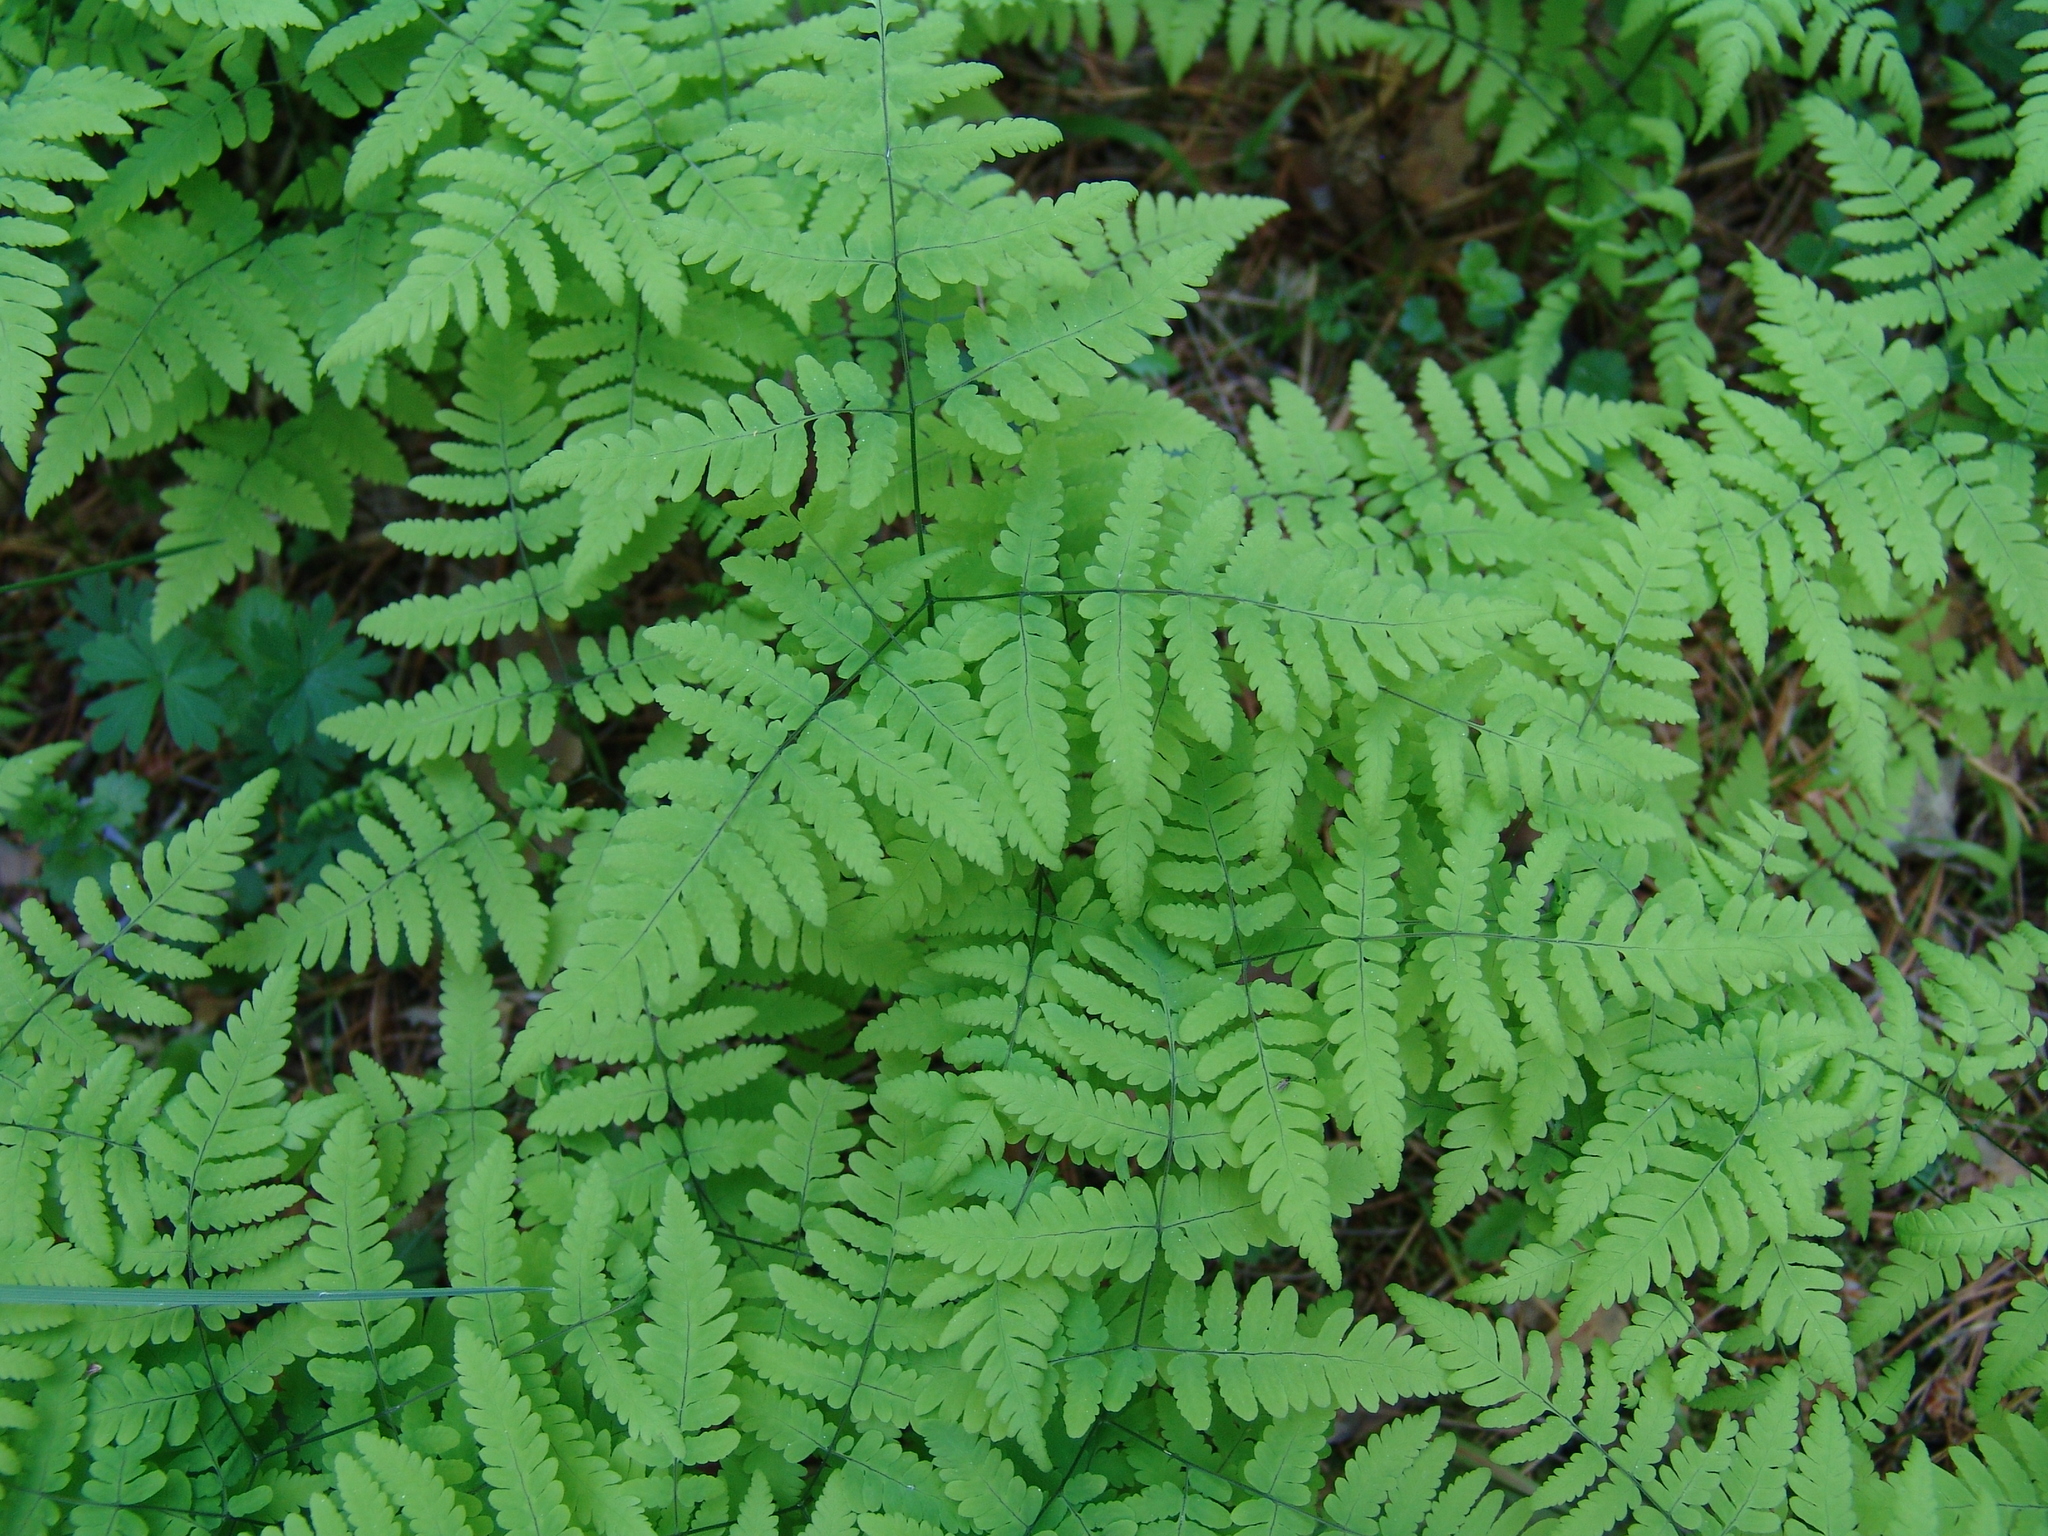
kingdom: Plantae
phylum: Tracheophyta
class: Polypodiopsida
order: Polypodiales
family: Cystopteridaceae
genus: Gymnocarpium
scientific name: Gymnocarpium dryopteris
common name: Oak fern
